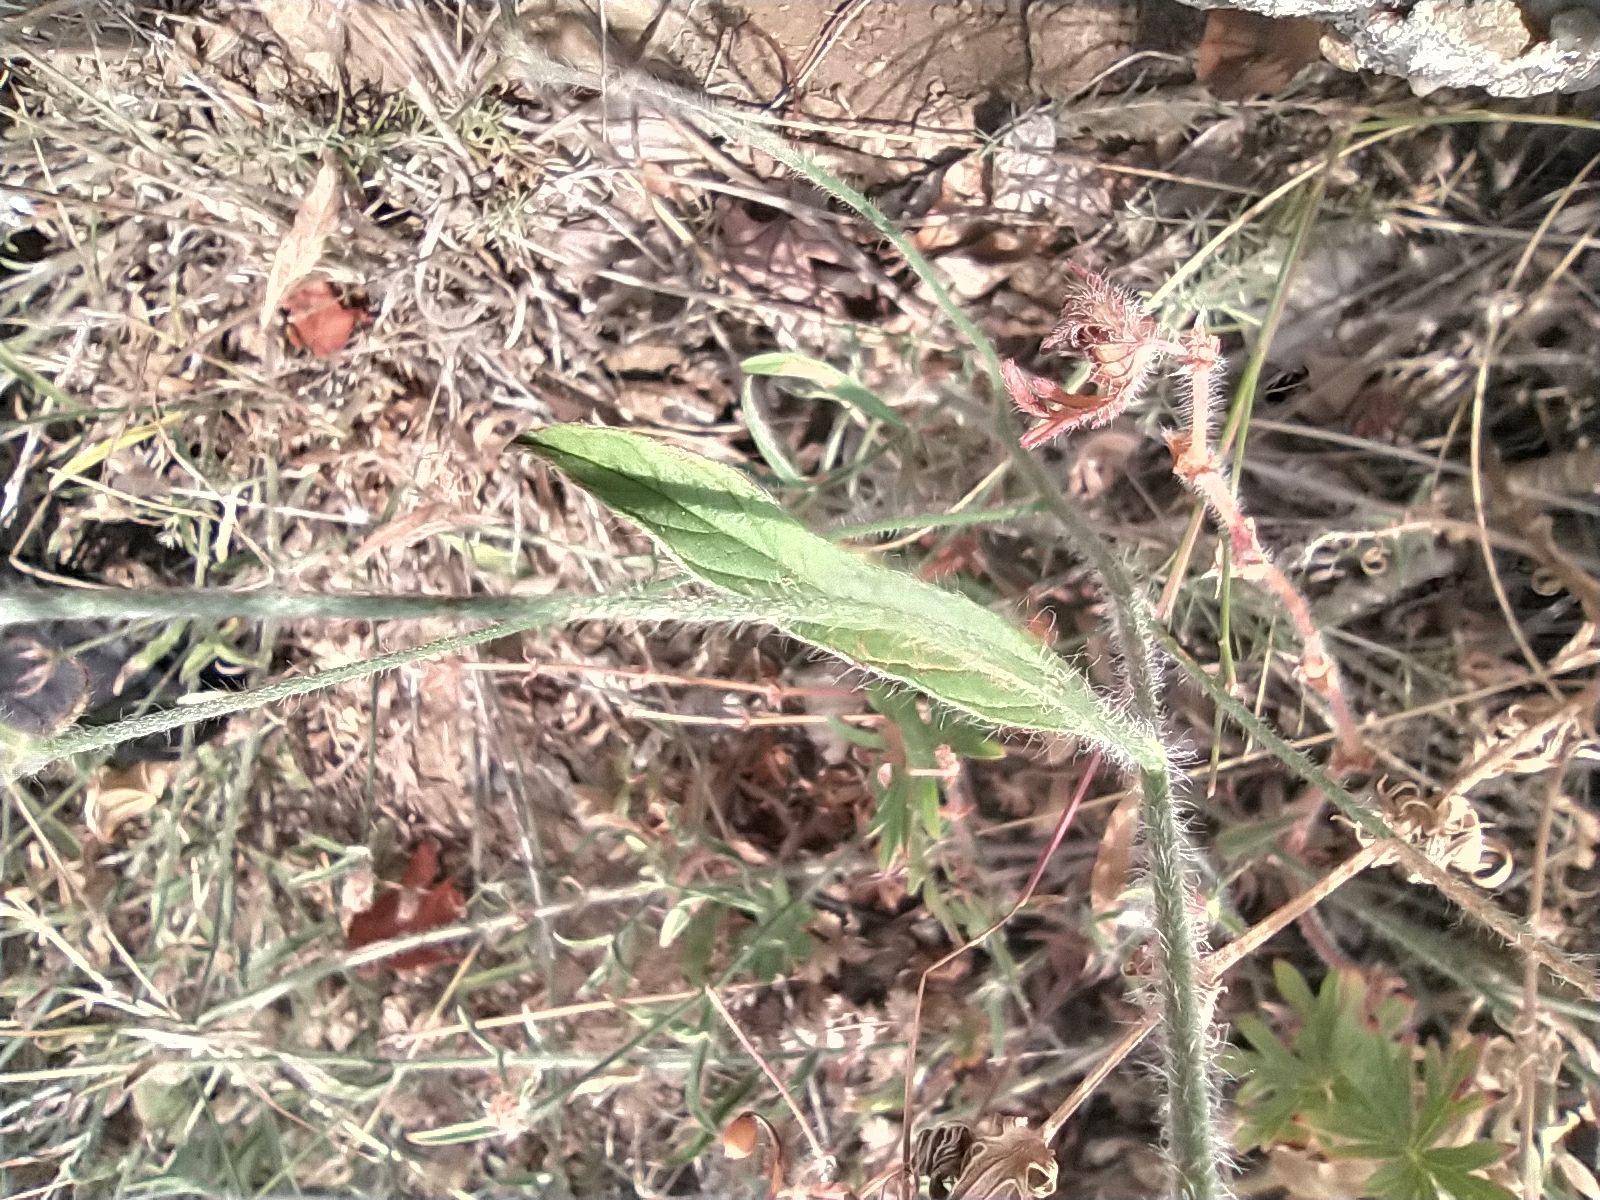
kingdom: Plantae
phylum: Tracheophyta
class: Magnoliopsida
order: Solanales
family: Convolvulaceae
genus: Convolvulus
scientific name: Convolvulus cantabrica
